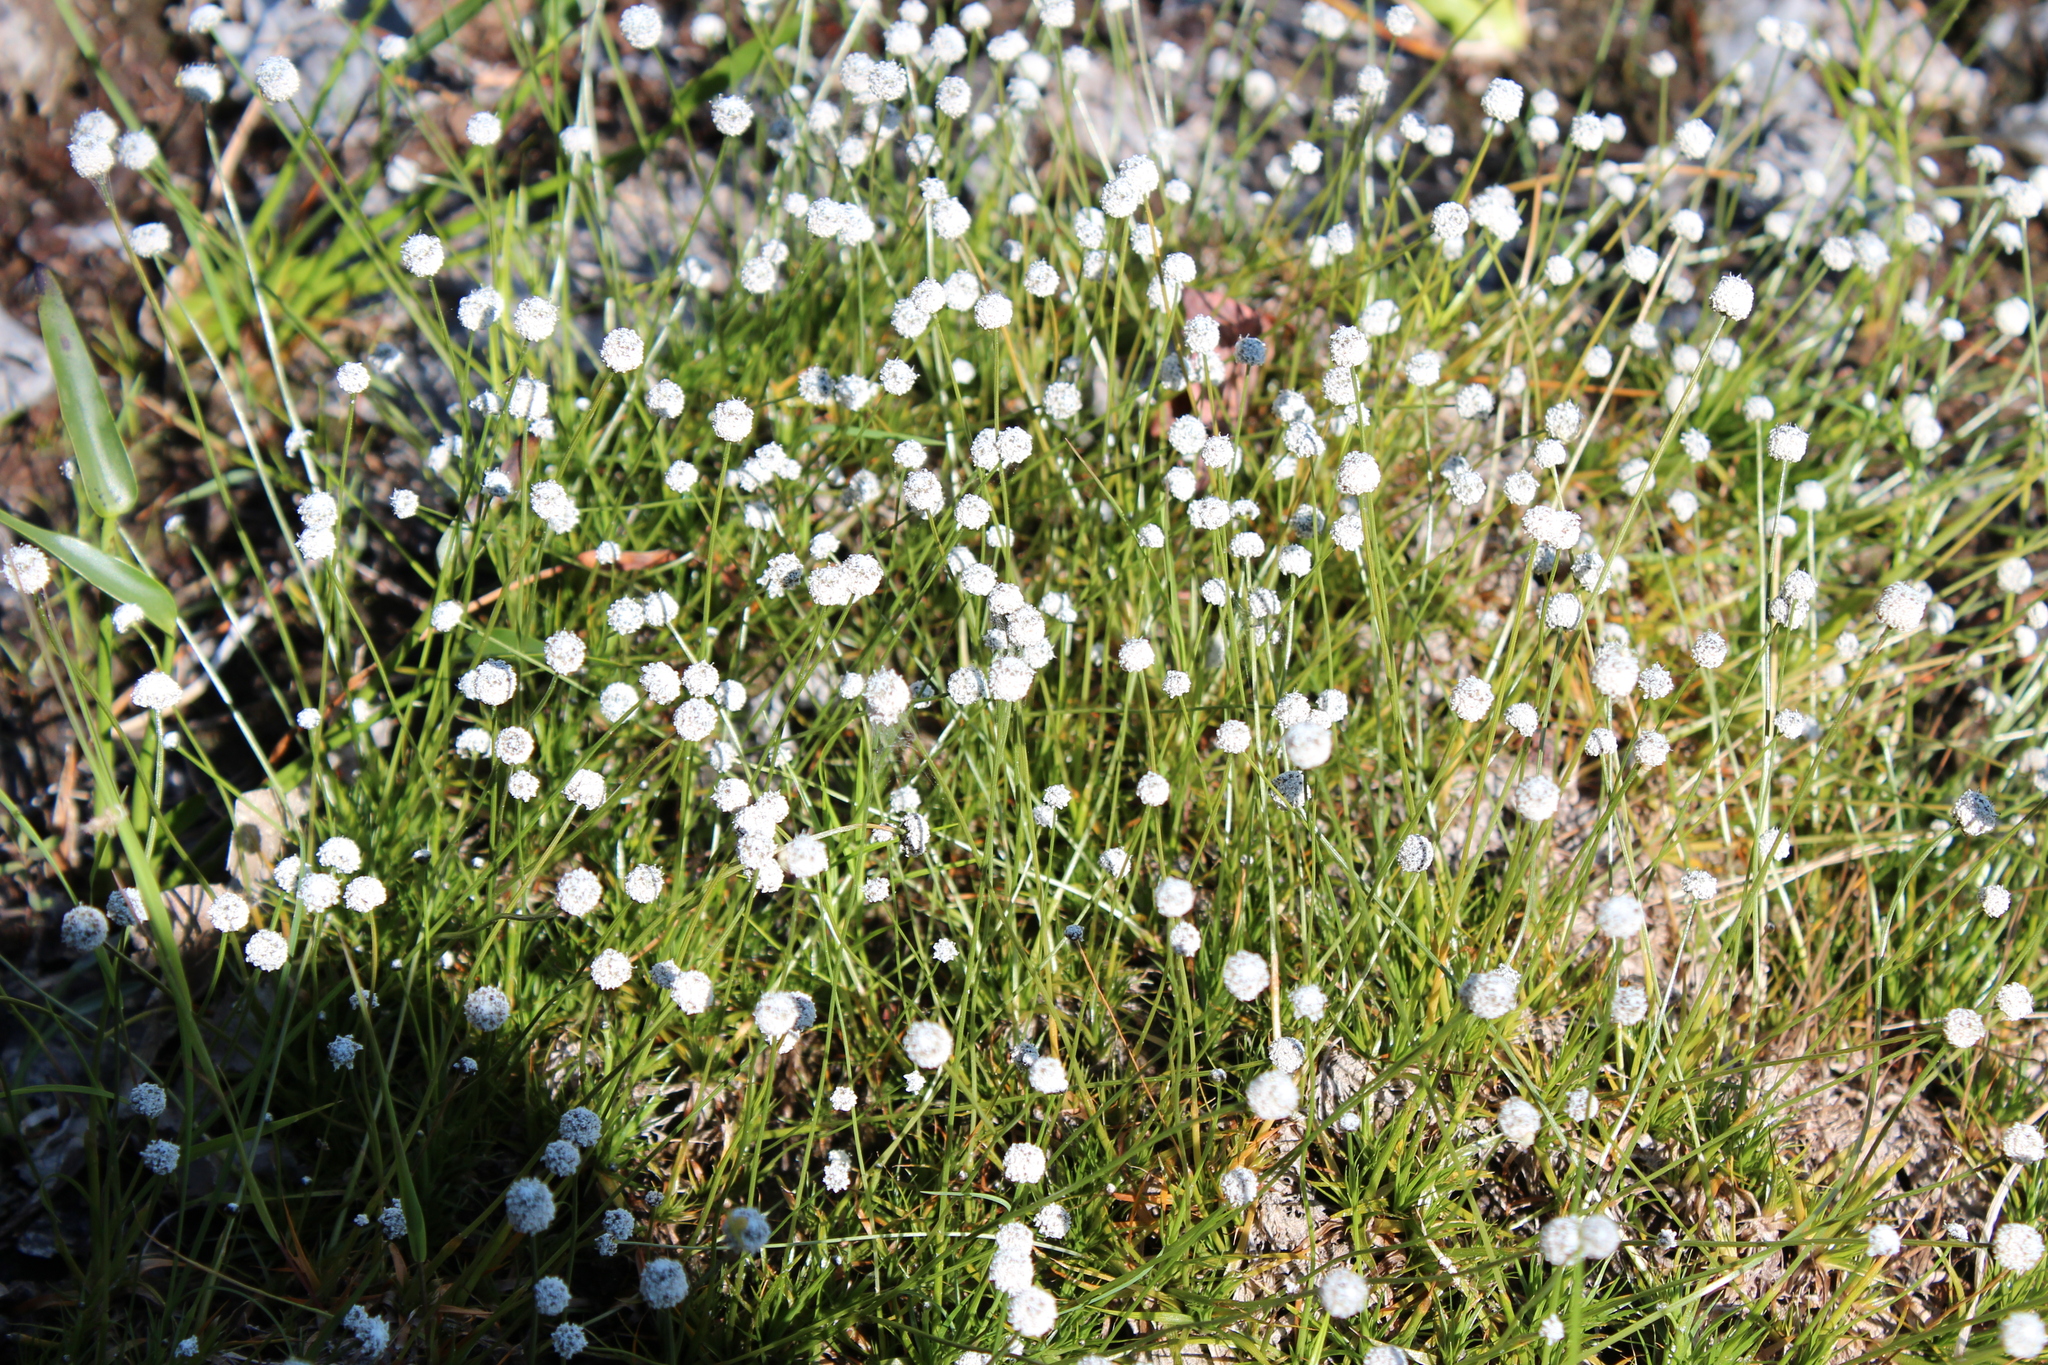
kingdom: Plantae
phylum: Tracheophyta
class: Liliopsida
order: Poales
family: Eriocaulaceae
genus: Eriocaulon
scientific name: Eriocaulon aquaticum
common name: Pipewort
